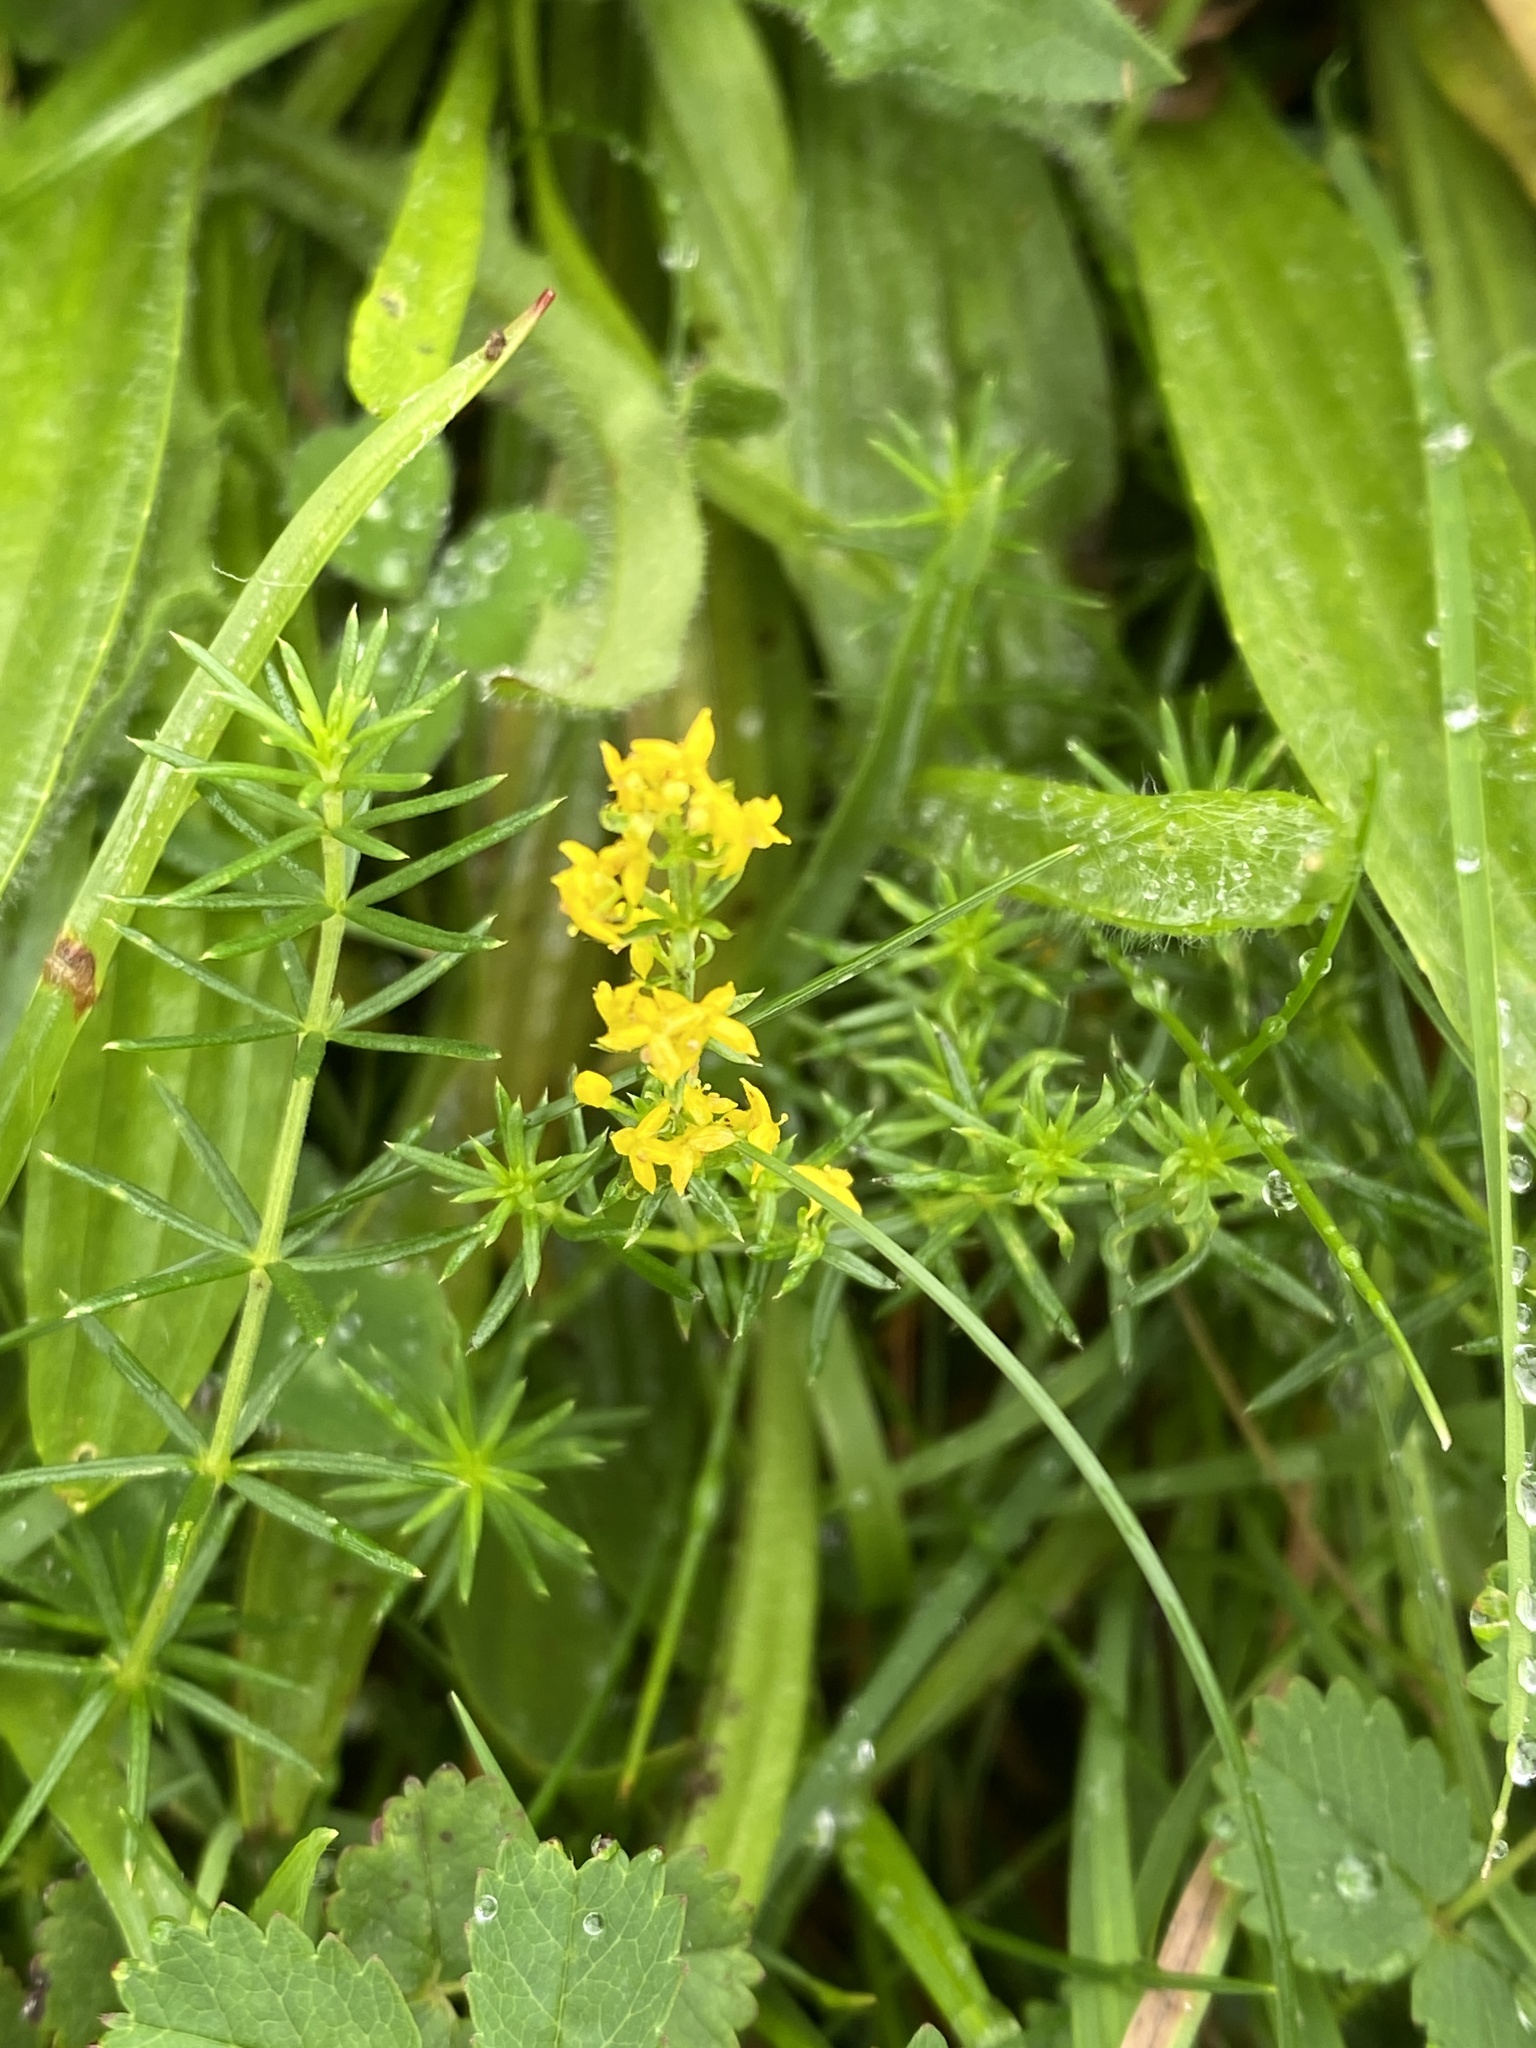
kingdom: Plantae
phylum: Tracheophyta
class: Magnoliopsida
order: Gentianales
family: Rubiaceae
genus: Galium
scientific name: Galium verum
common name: Lady's bedstraw
